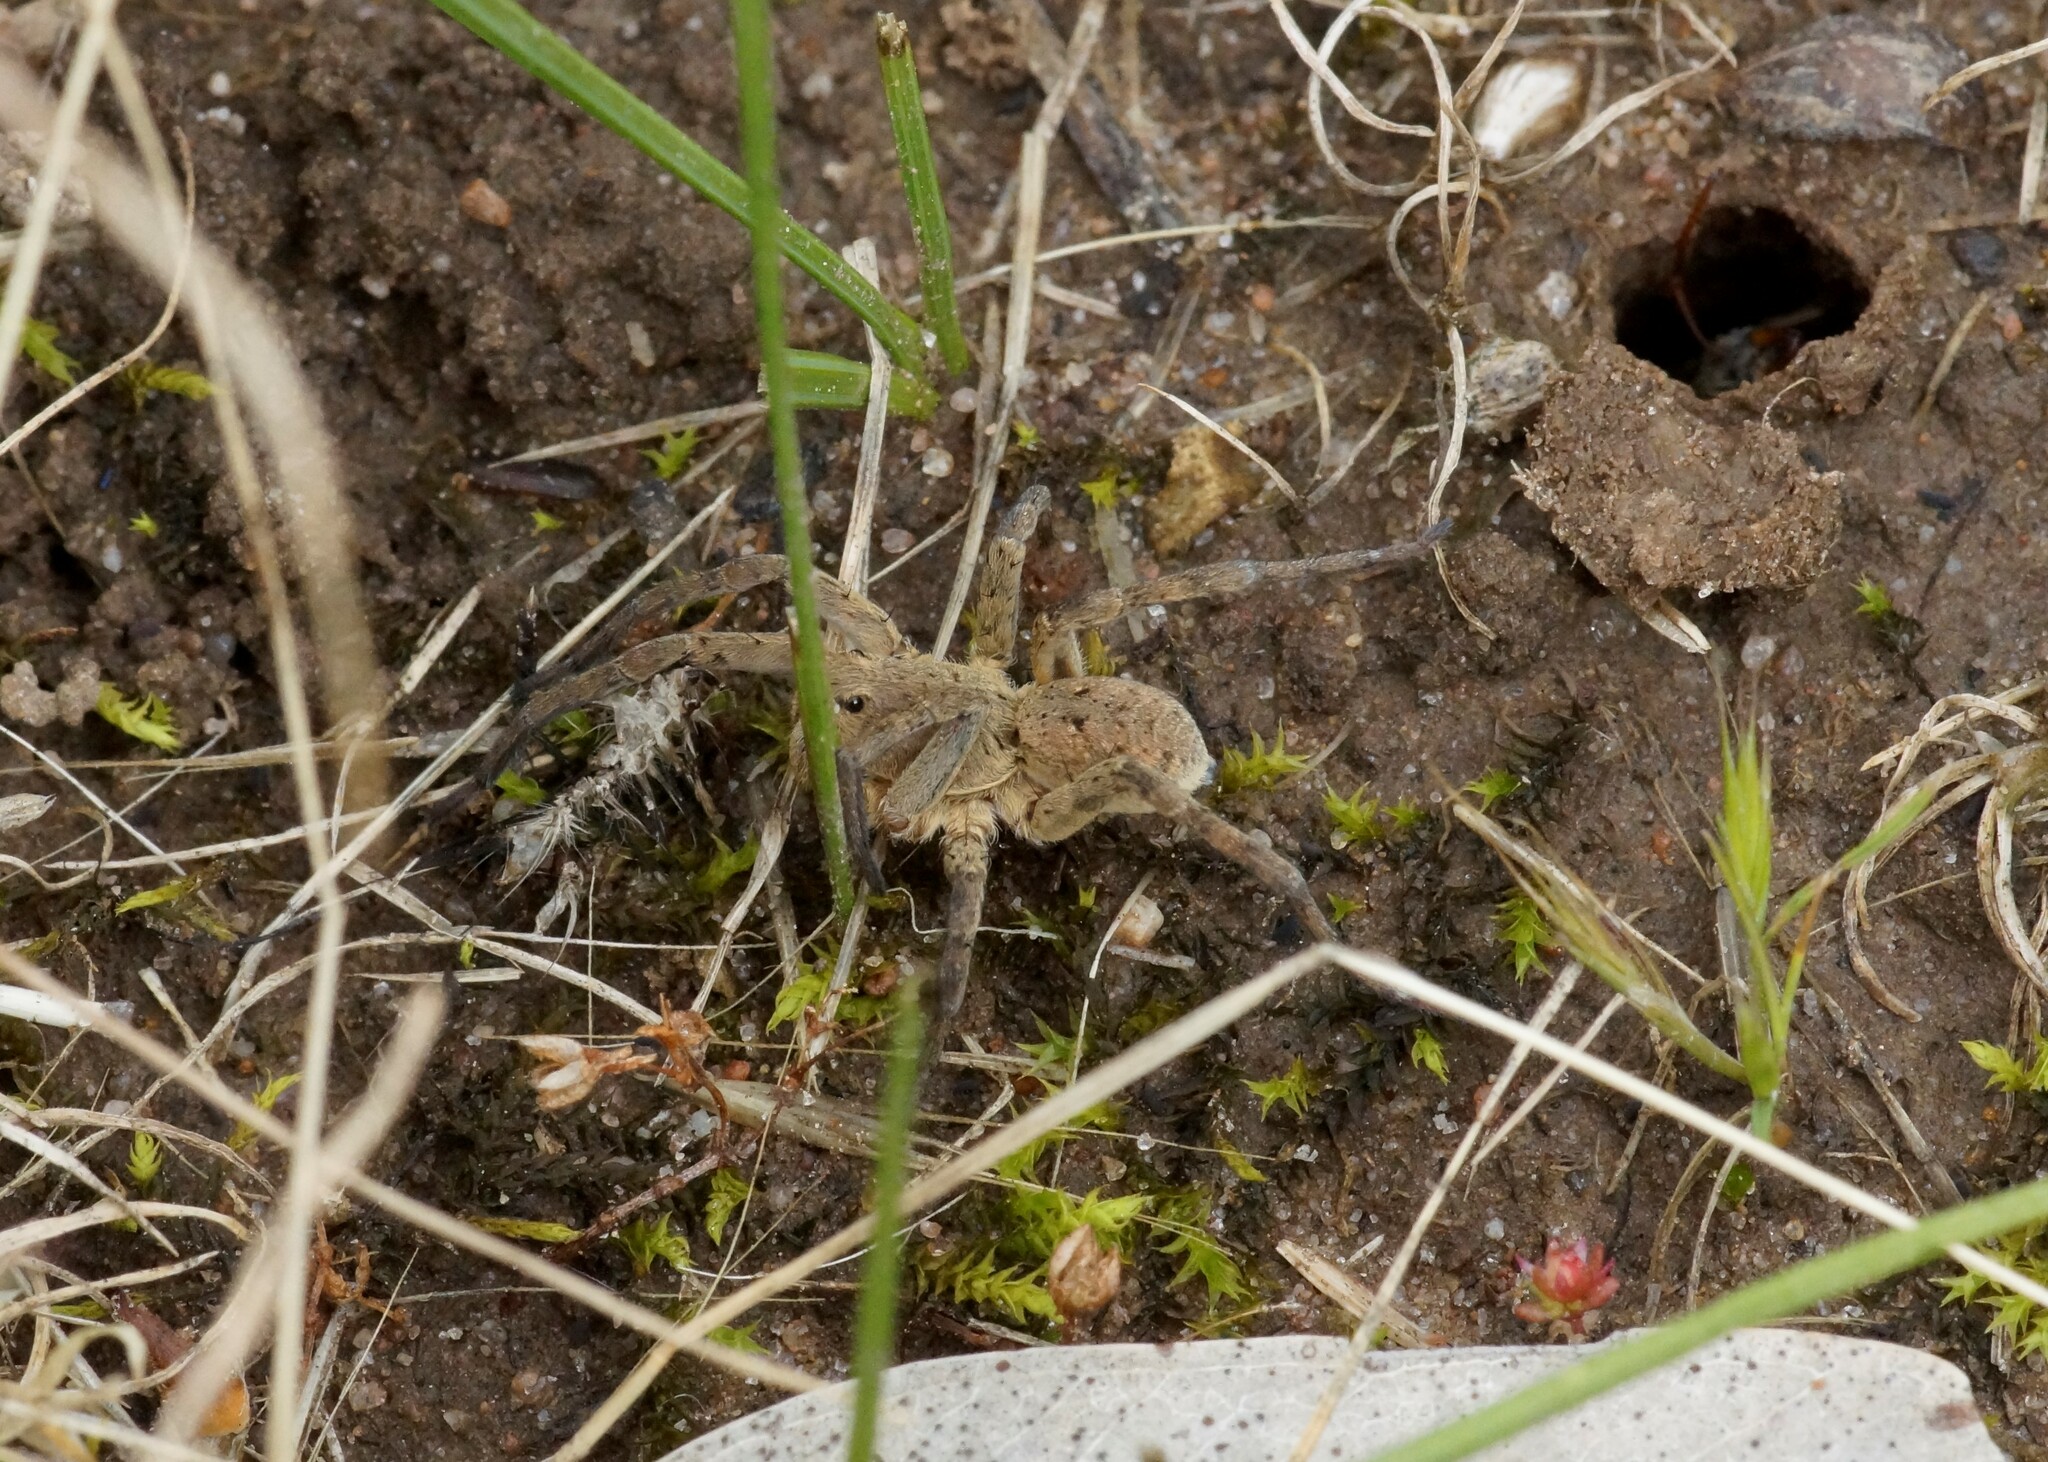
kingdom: Animalia
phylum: Arthropoda
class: Arachnida
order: Araneae
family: Lycosidae
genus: Portacosa
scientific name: Portacosa cinerea
